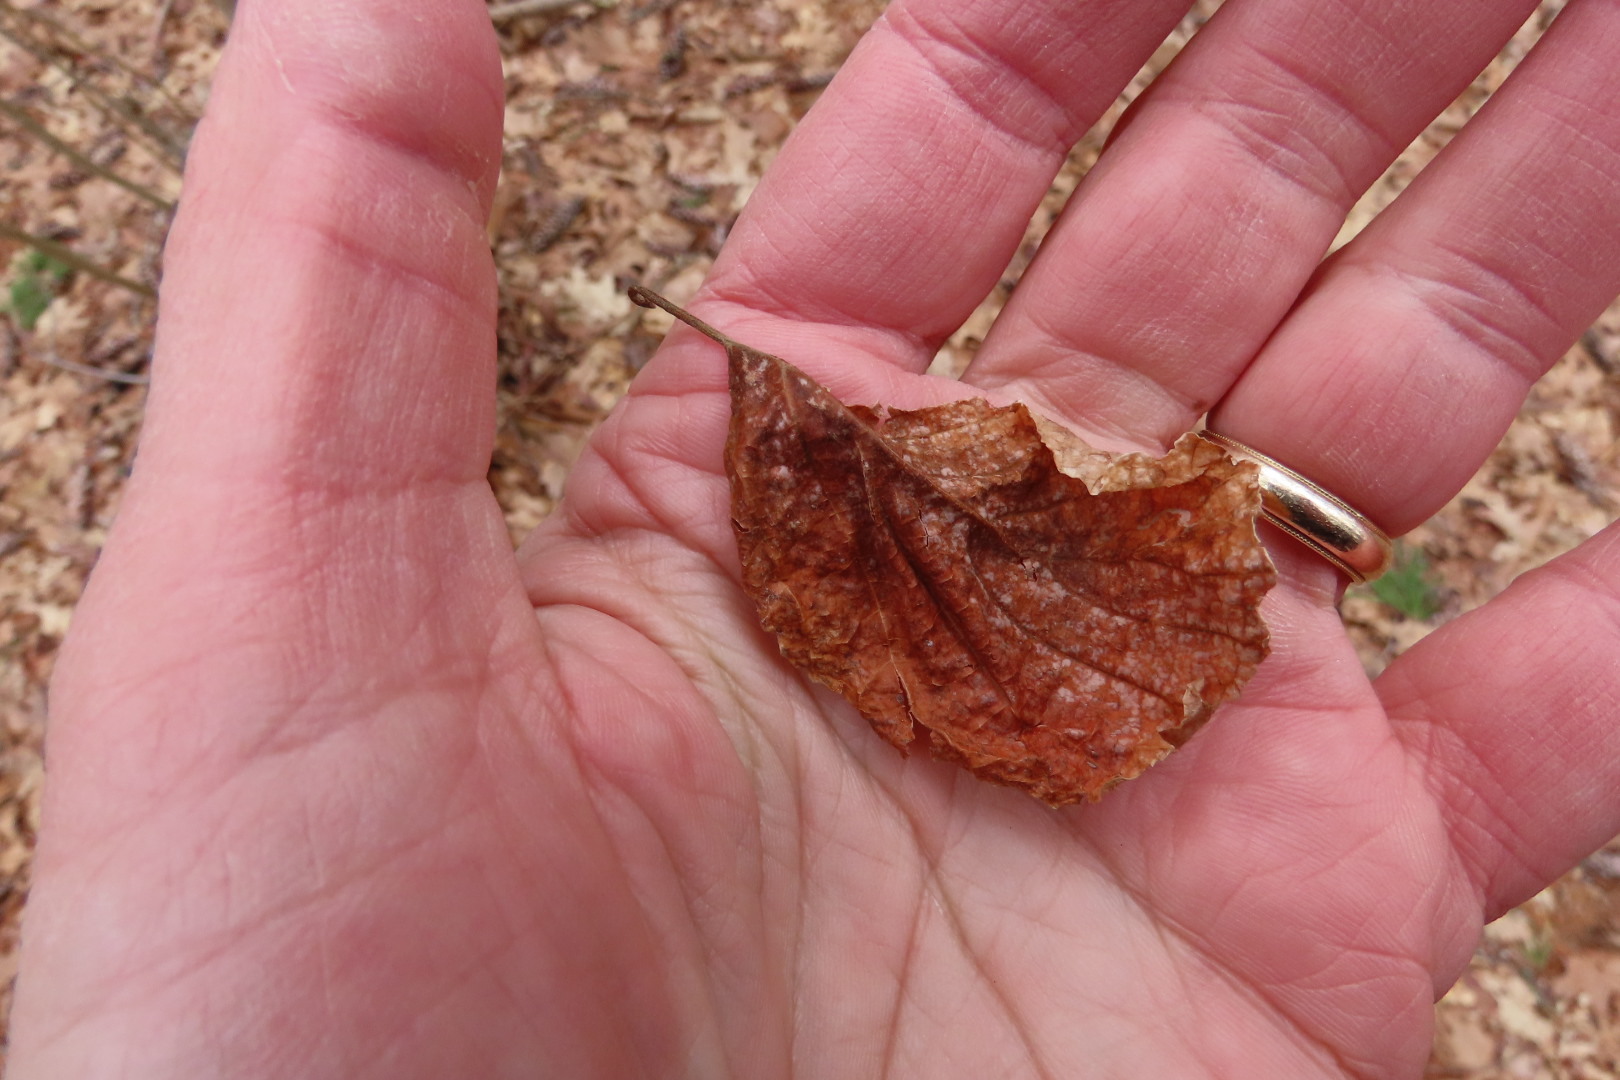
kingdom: Plantae
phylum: Tracheophyta
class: Magnoliopsida
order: Saxifragales
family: Hamamelidaceae
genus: Hamamelis
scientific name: Hamamelis virginiana
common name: Witch-hazel
